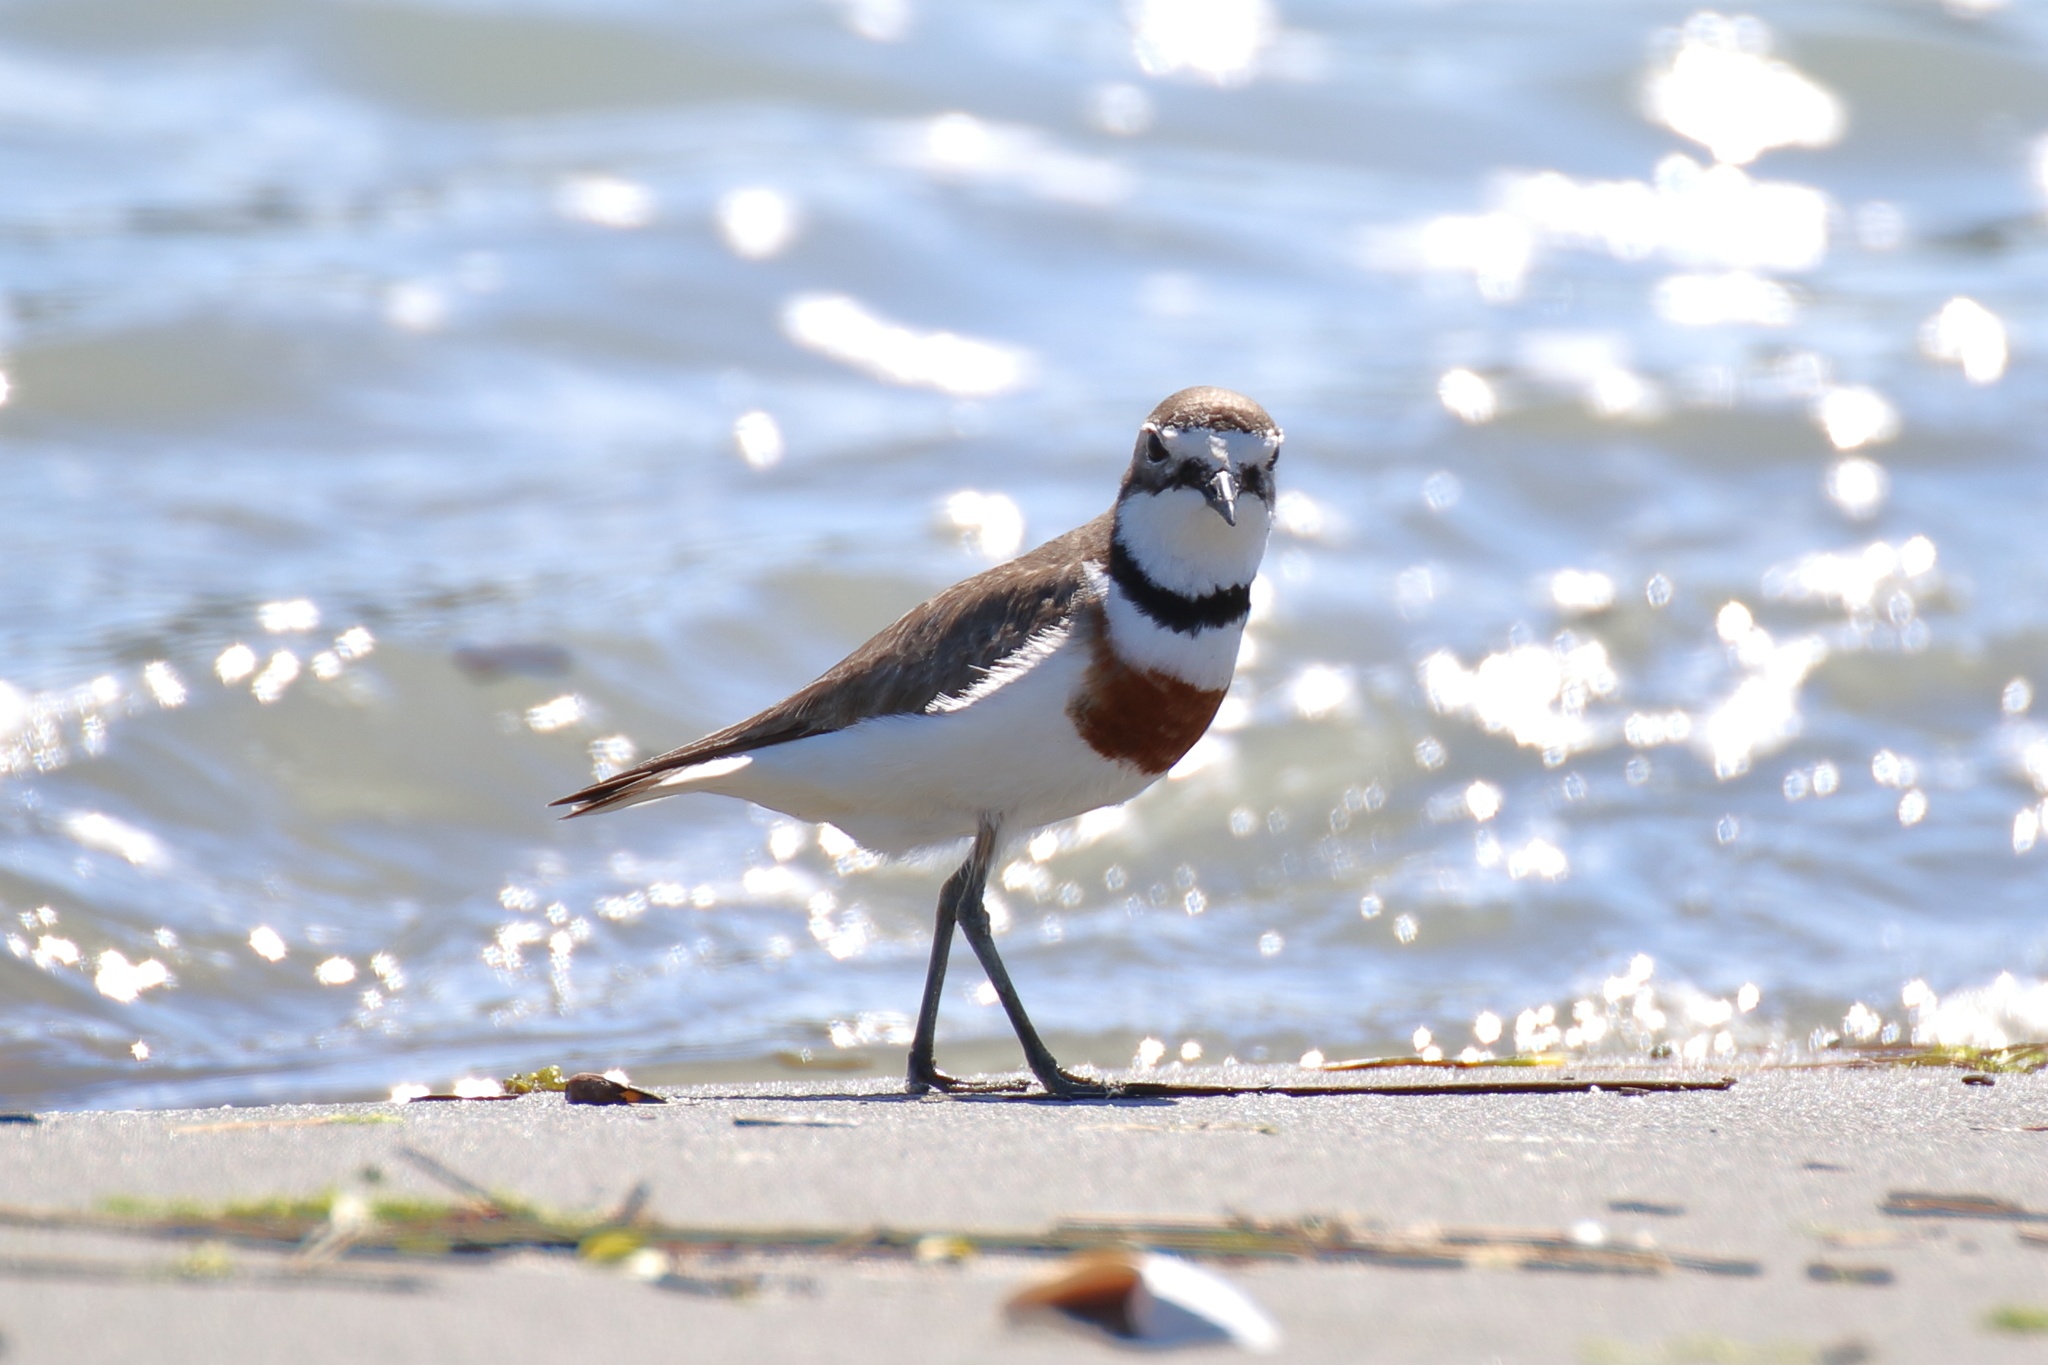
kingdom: Animalia
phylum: Chordata
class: Aves
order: Charadriiformes
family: Charadriidae
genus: Anarhynchus
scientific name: Anarhynchus
